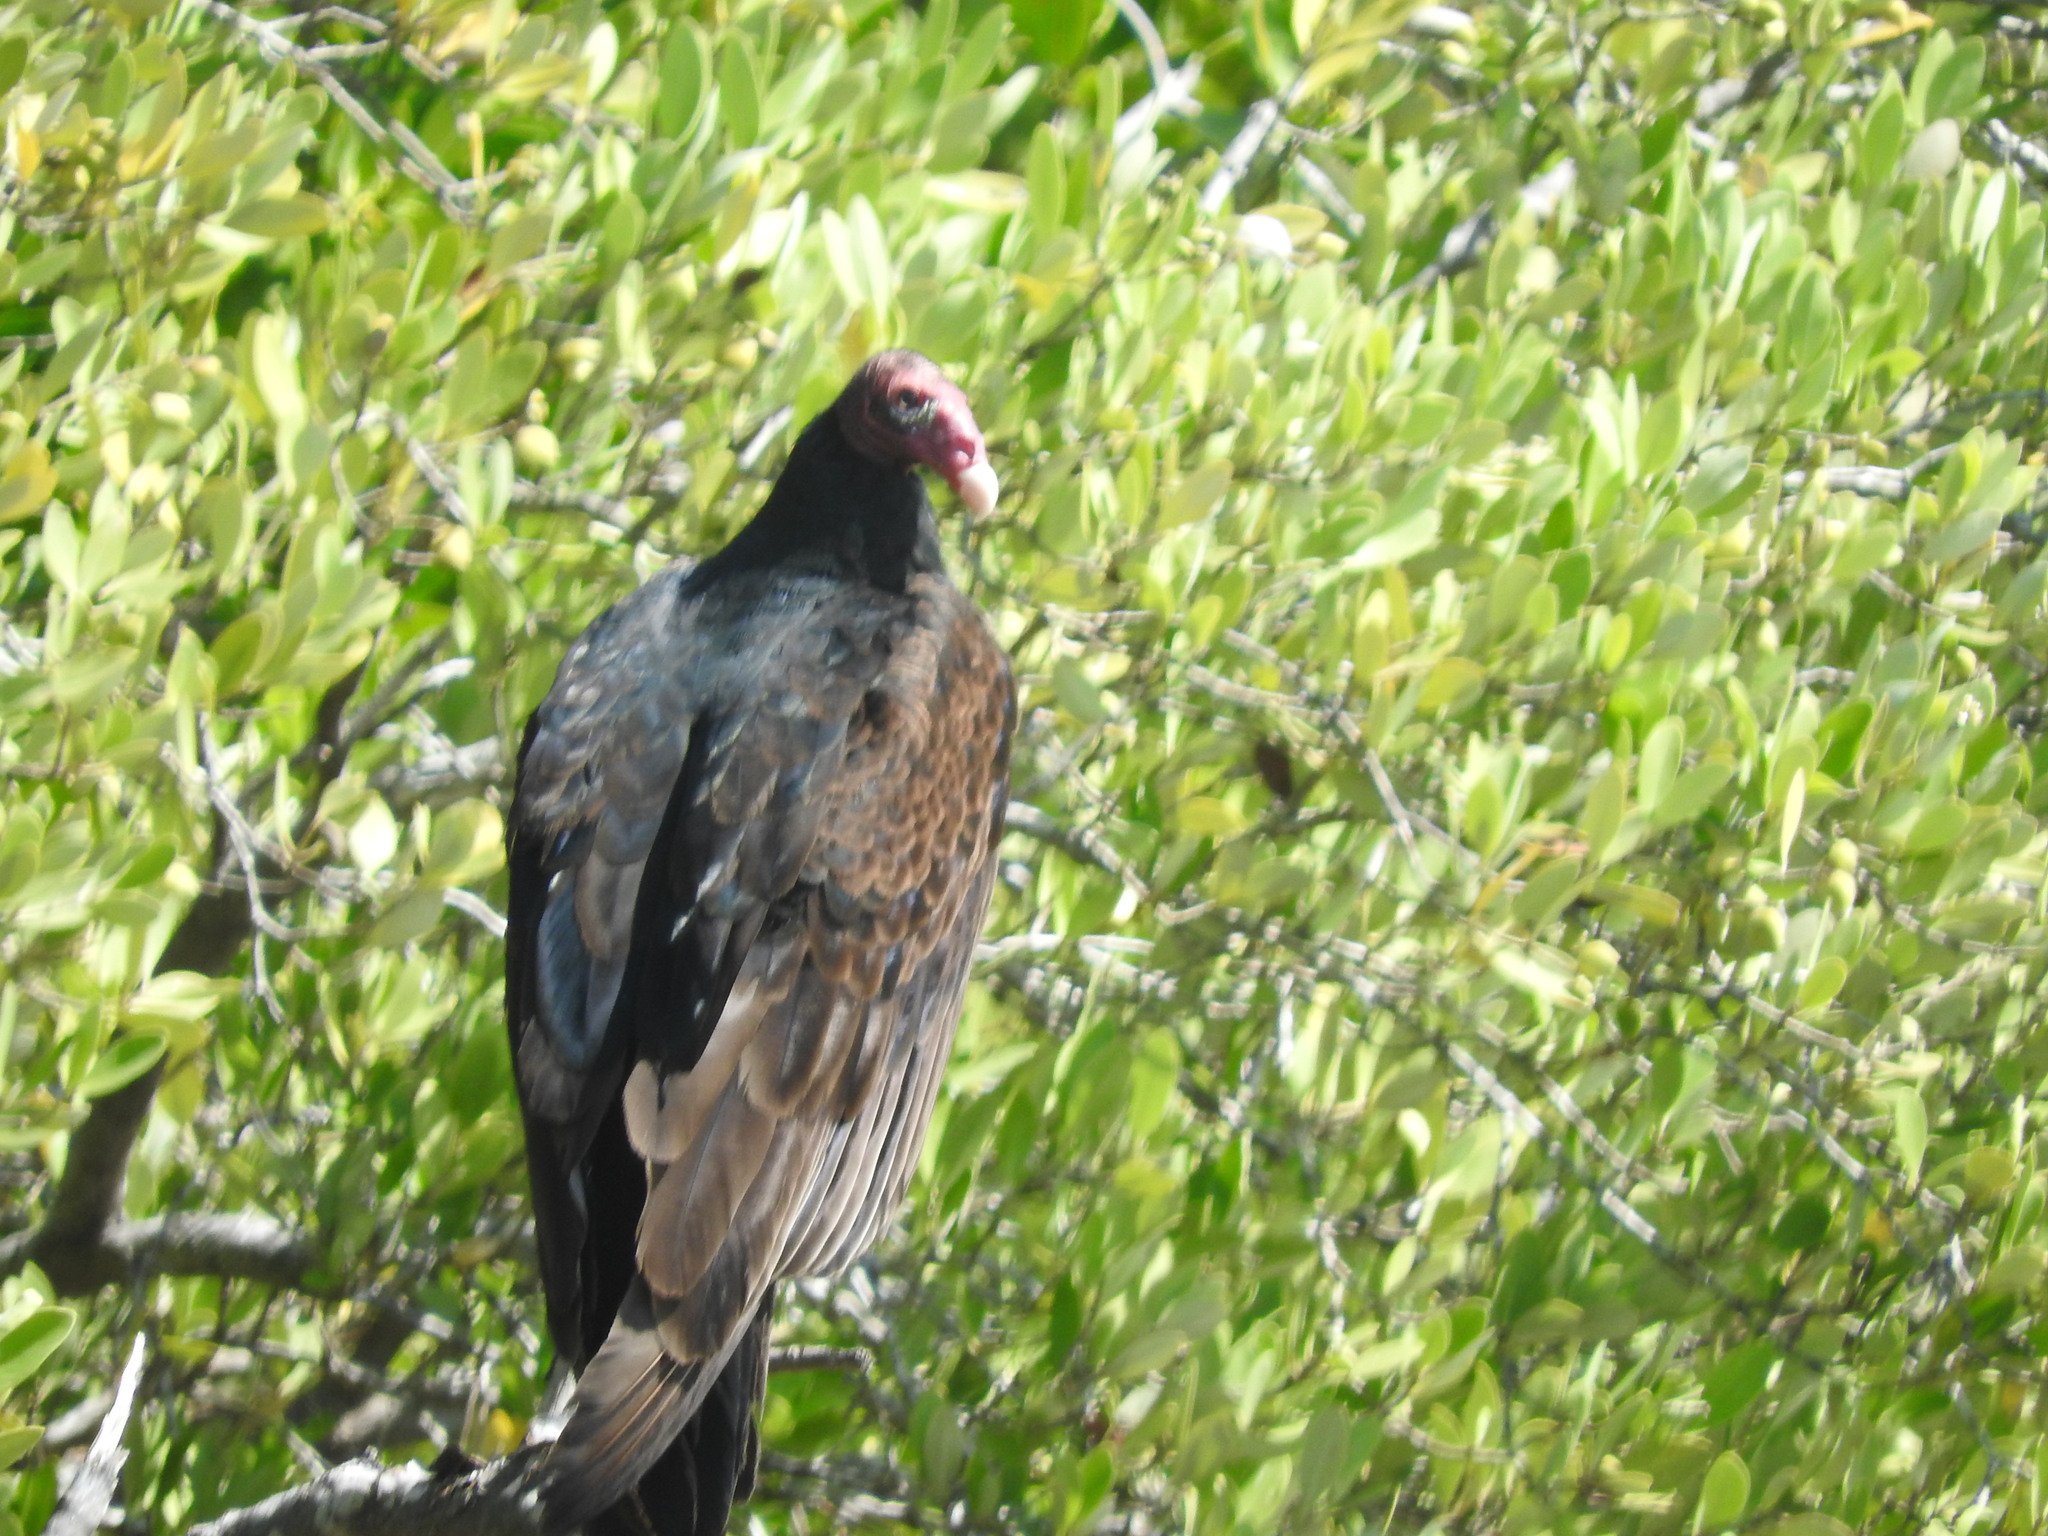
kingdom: Animalia
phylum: Chordata
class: Aves
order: Accipitriformes
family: Cathartidae
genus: Cathartes
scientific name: Cathartes aura
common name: Turkey vulture
